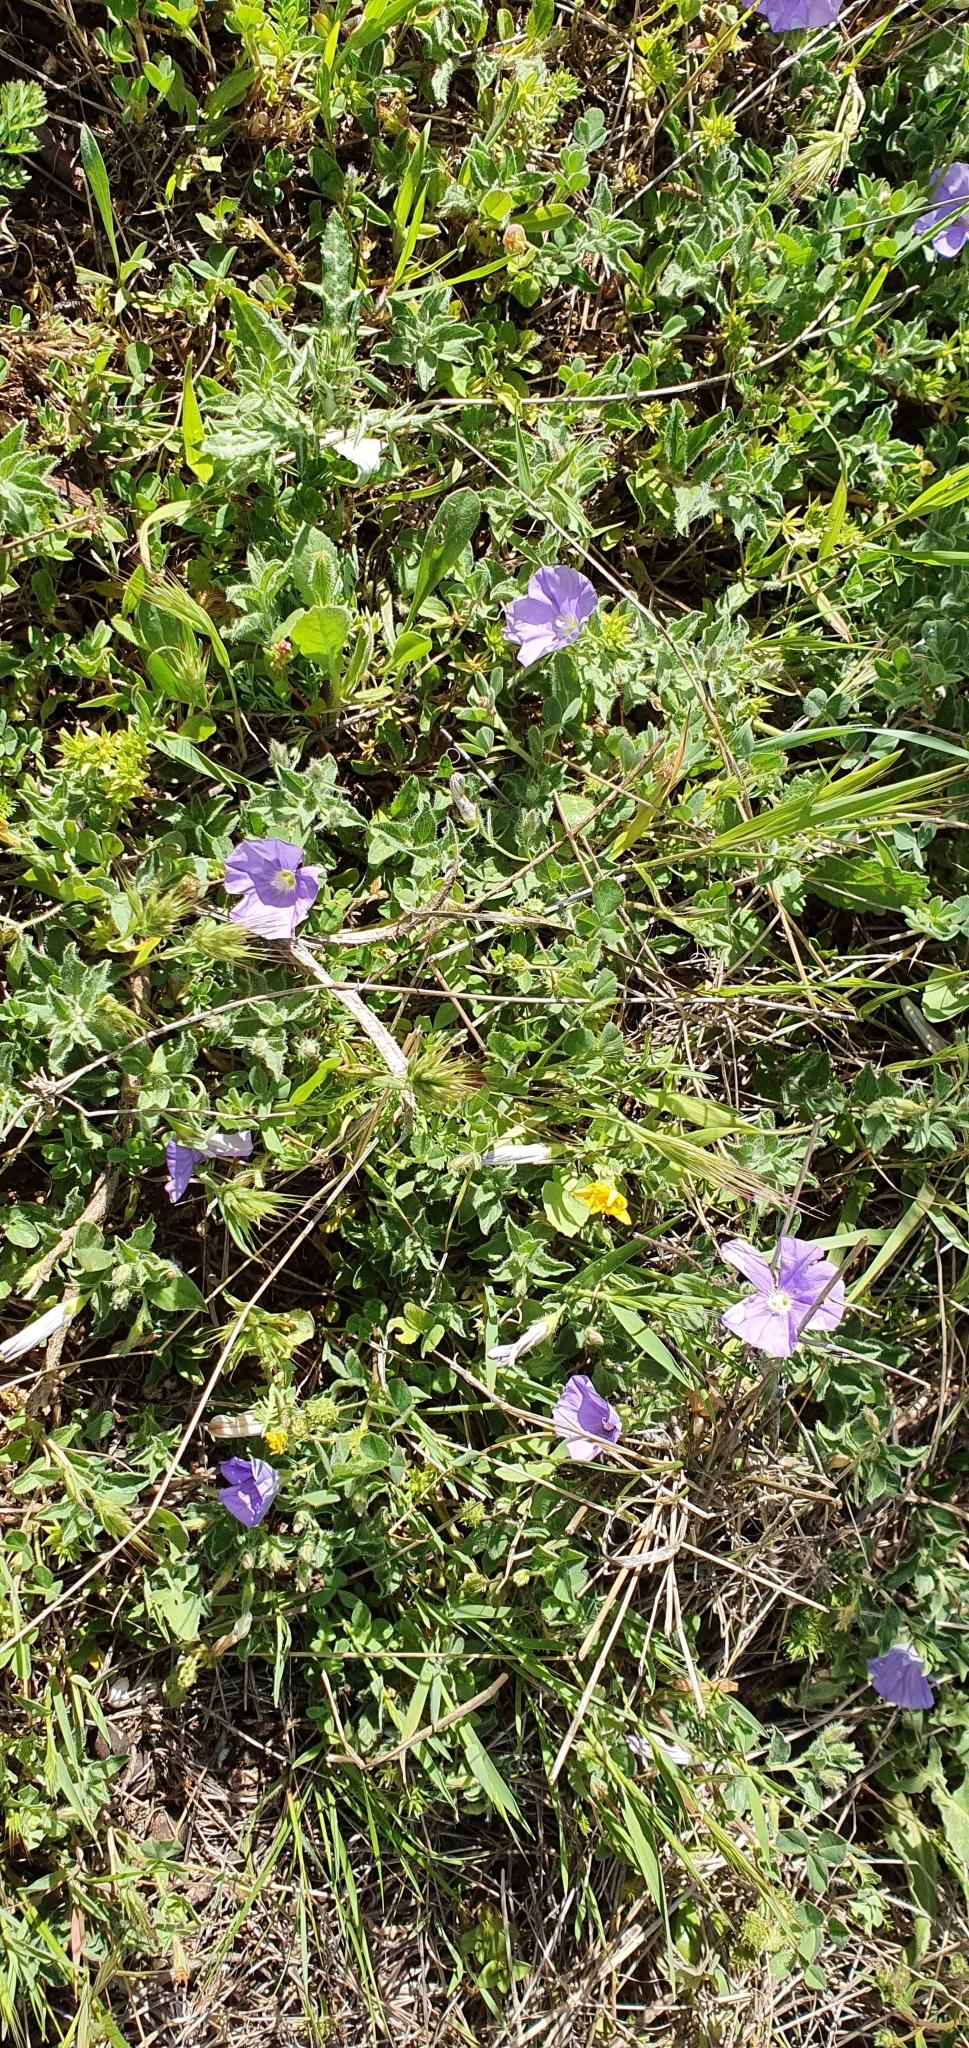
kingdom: Plantae
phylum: Tracheophyta
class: Magnoliopsida
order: Solanales
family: Convolvulaceae
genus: Convolvulus
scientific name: Convolvulus sabatius
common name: Ground blue-convolvulus
